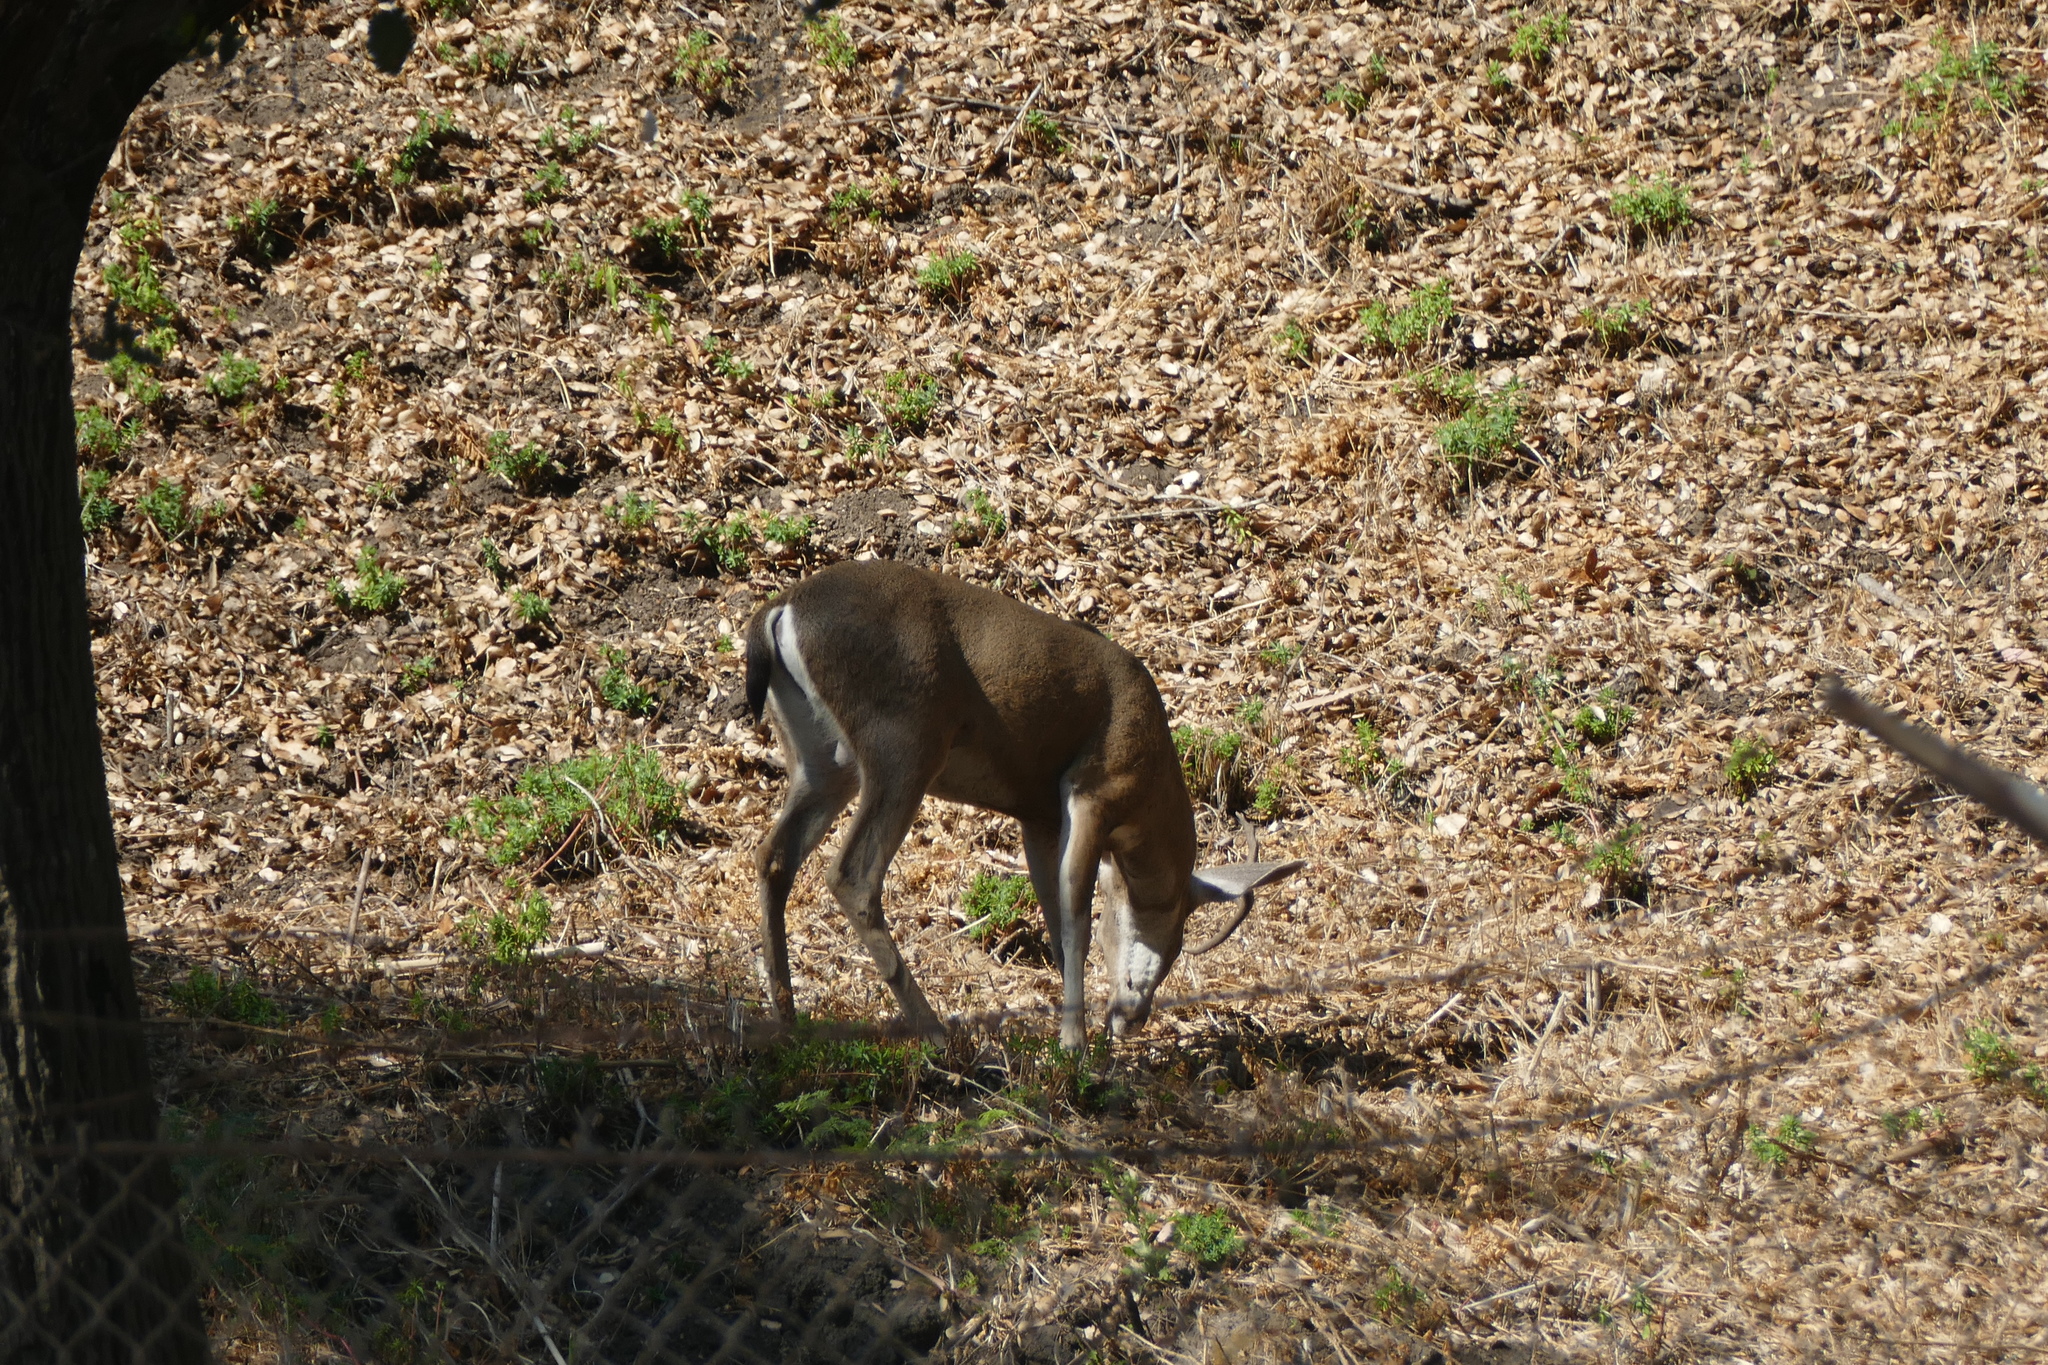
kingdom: Animalia
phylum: Chordata
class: Mammalia
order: Artiodactyla
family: Cervidae
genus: Odocoileus
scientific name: Odocoileus hemionus
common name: Mule deer
